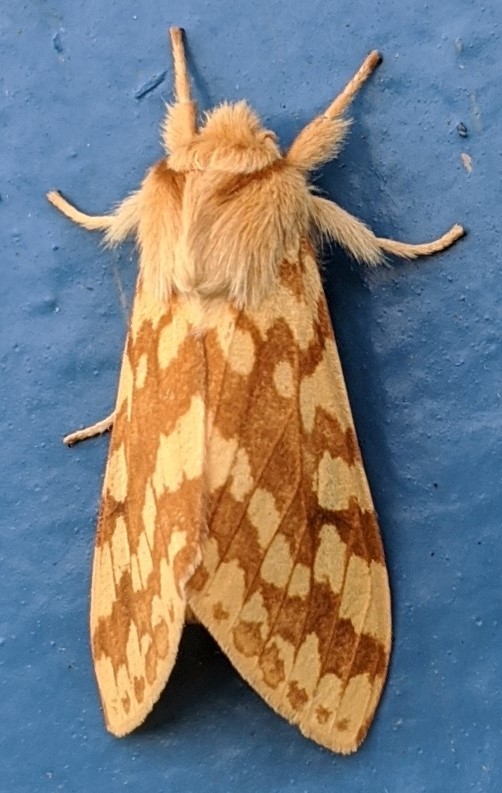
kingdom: Animalia
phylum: Arthropoda
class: Insecta
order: Lepidoptera
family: Erebidae
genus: Lophocampa
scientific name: Lophocampa maculata
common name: Spotted tussock moth
